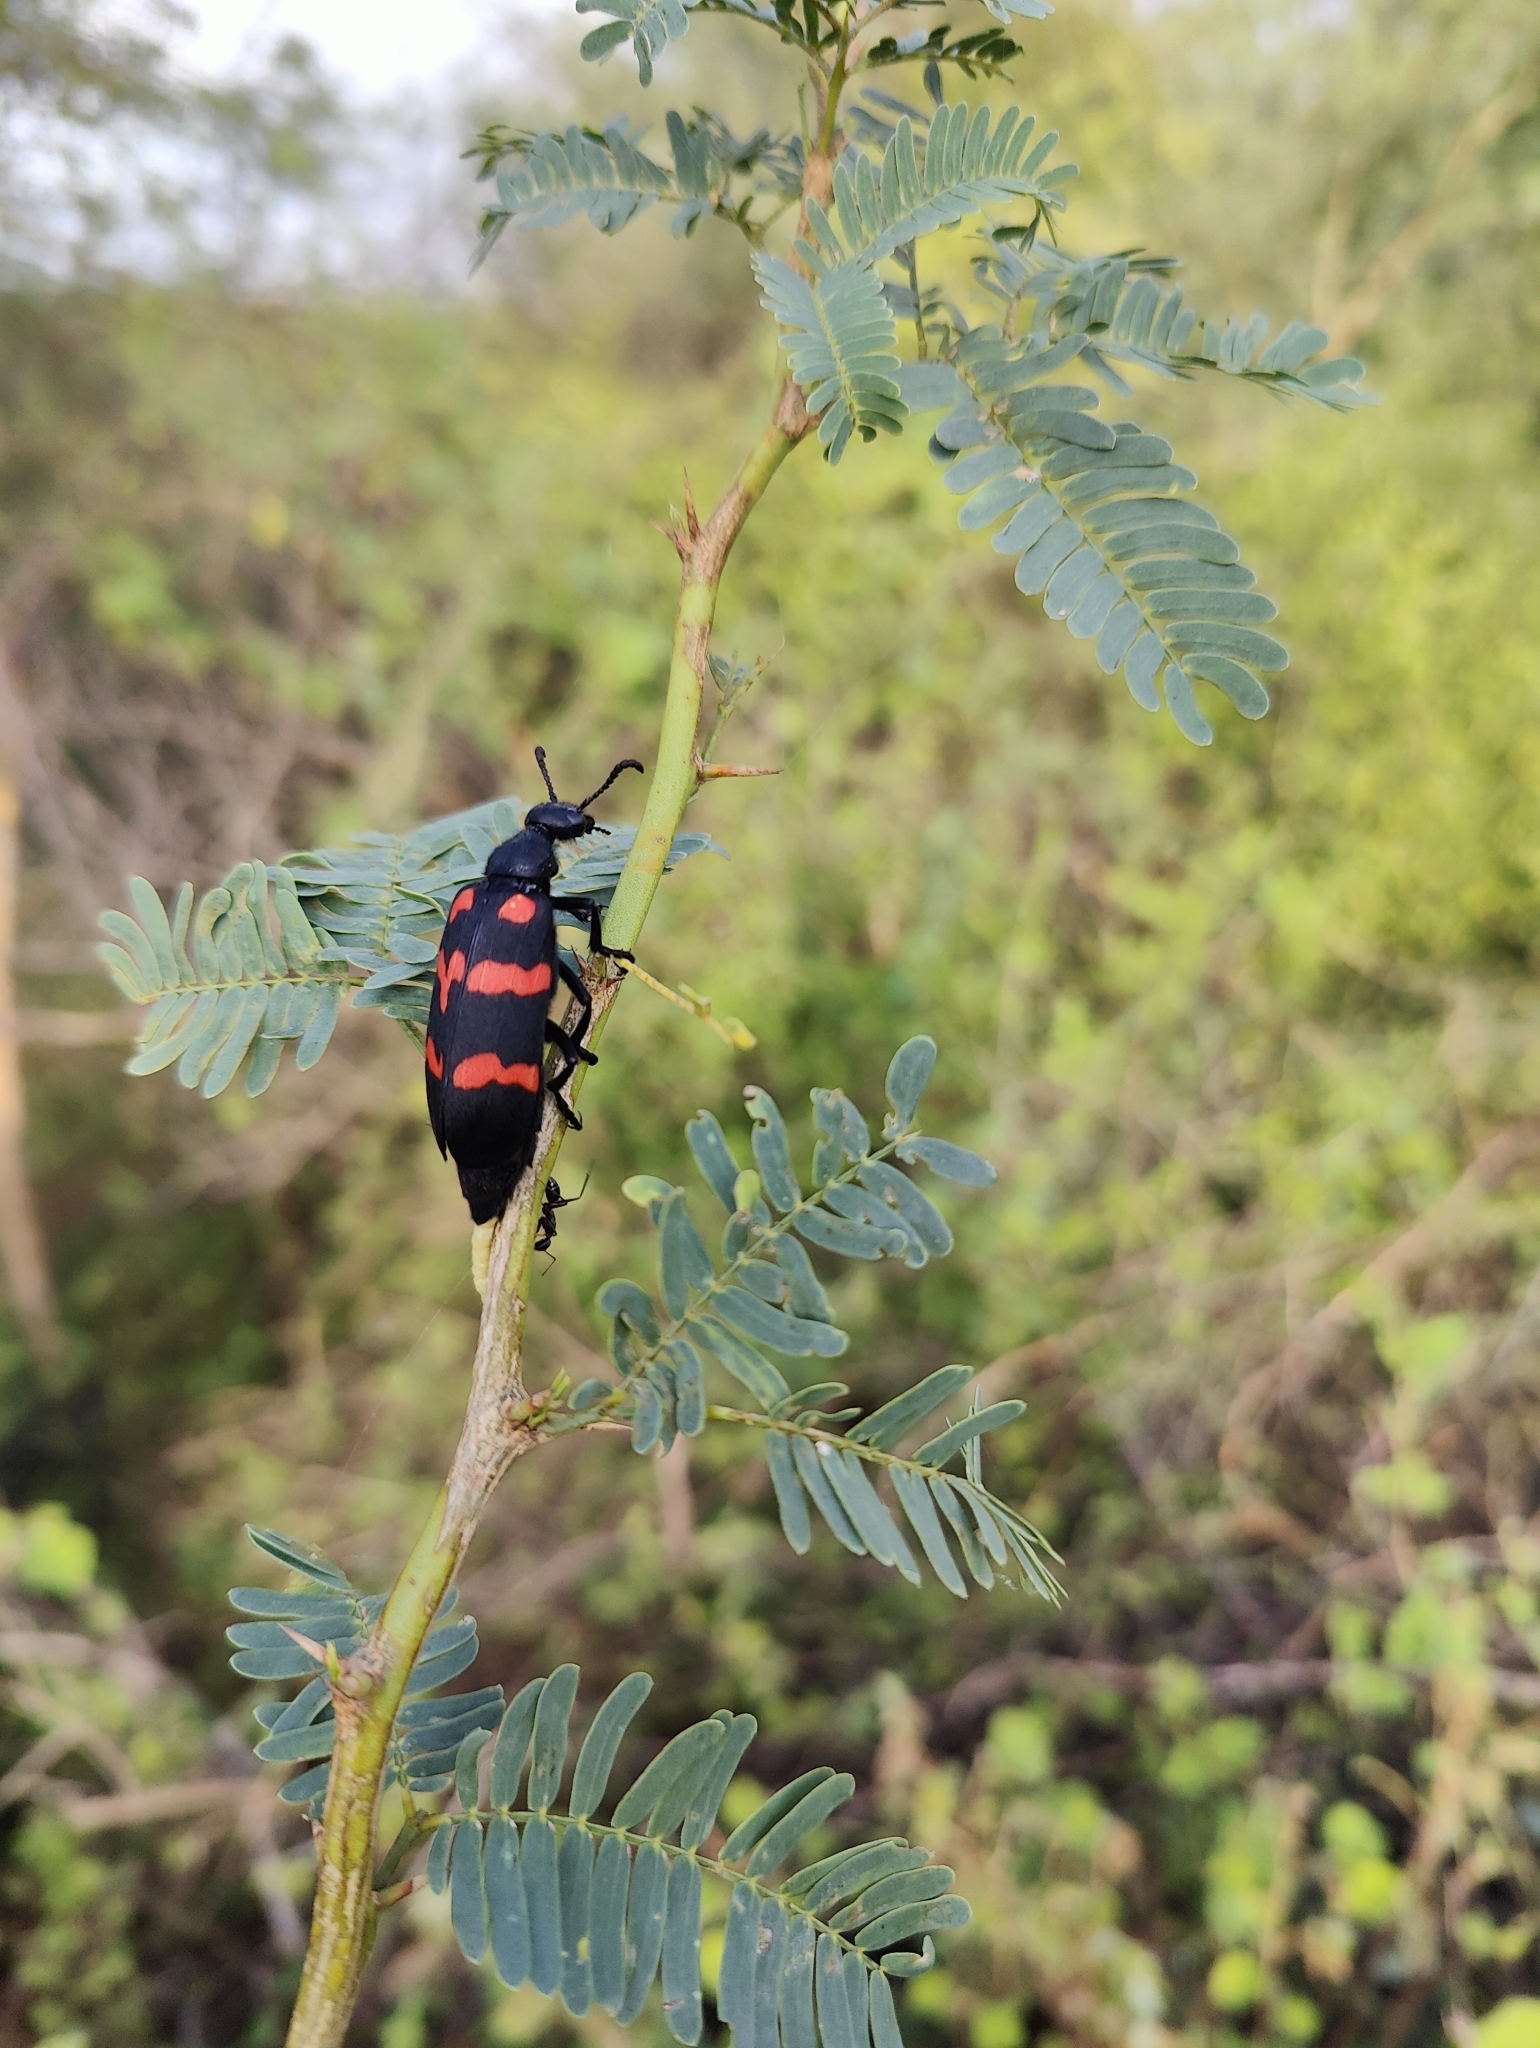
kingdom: Animalia
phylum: Arthropoda
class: Insecta
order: Coleoptera
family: Meloidae
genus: Hycleus
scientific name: Hycleus biundulatus
